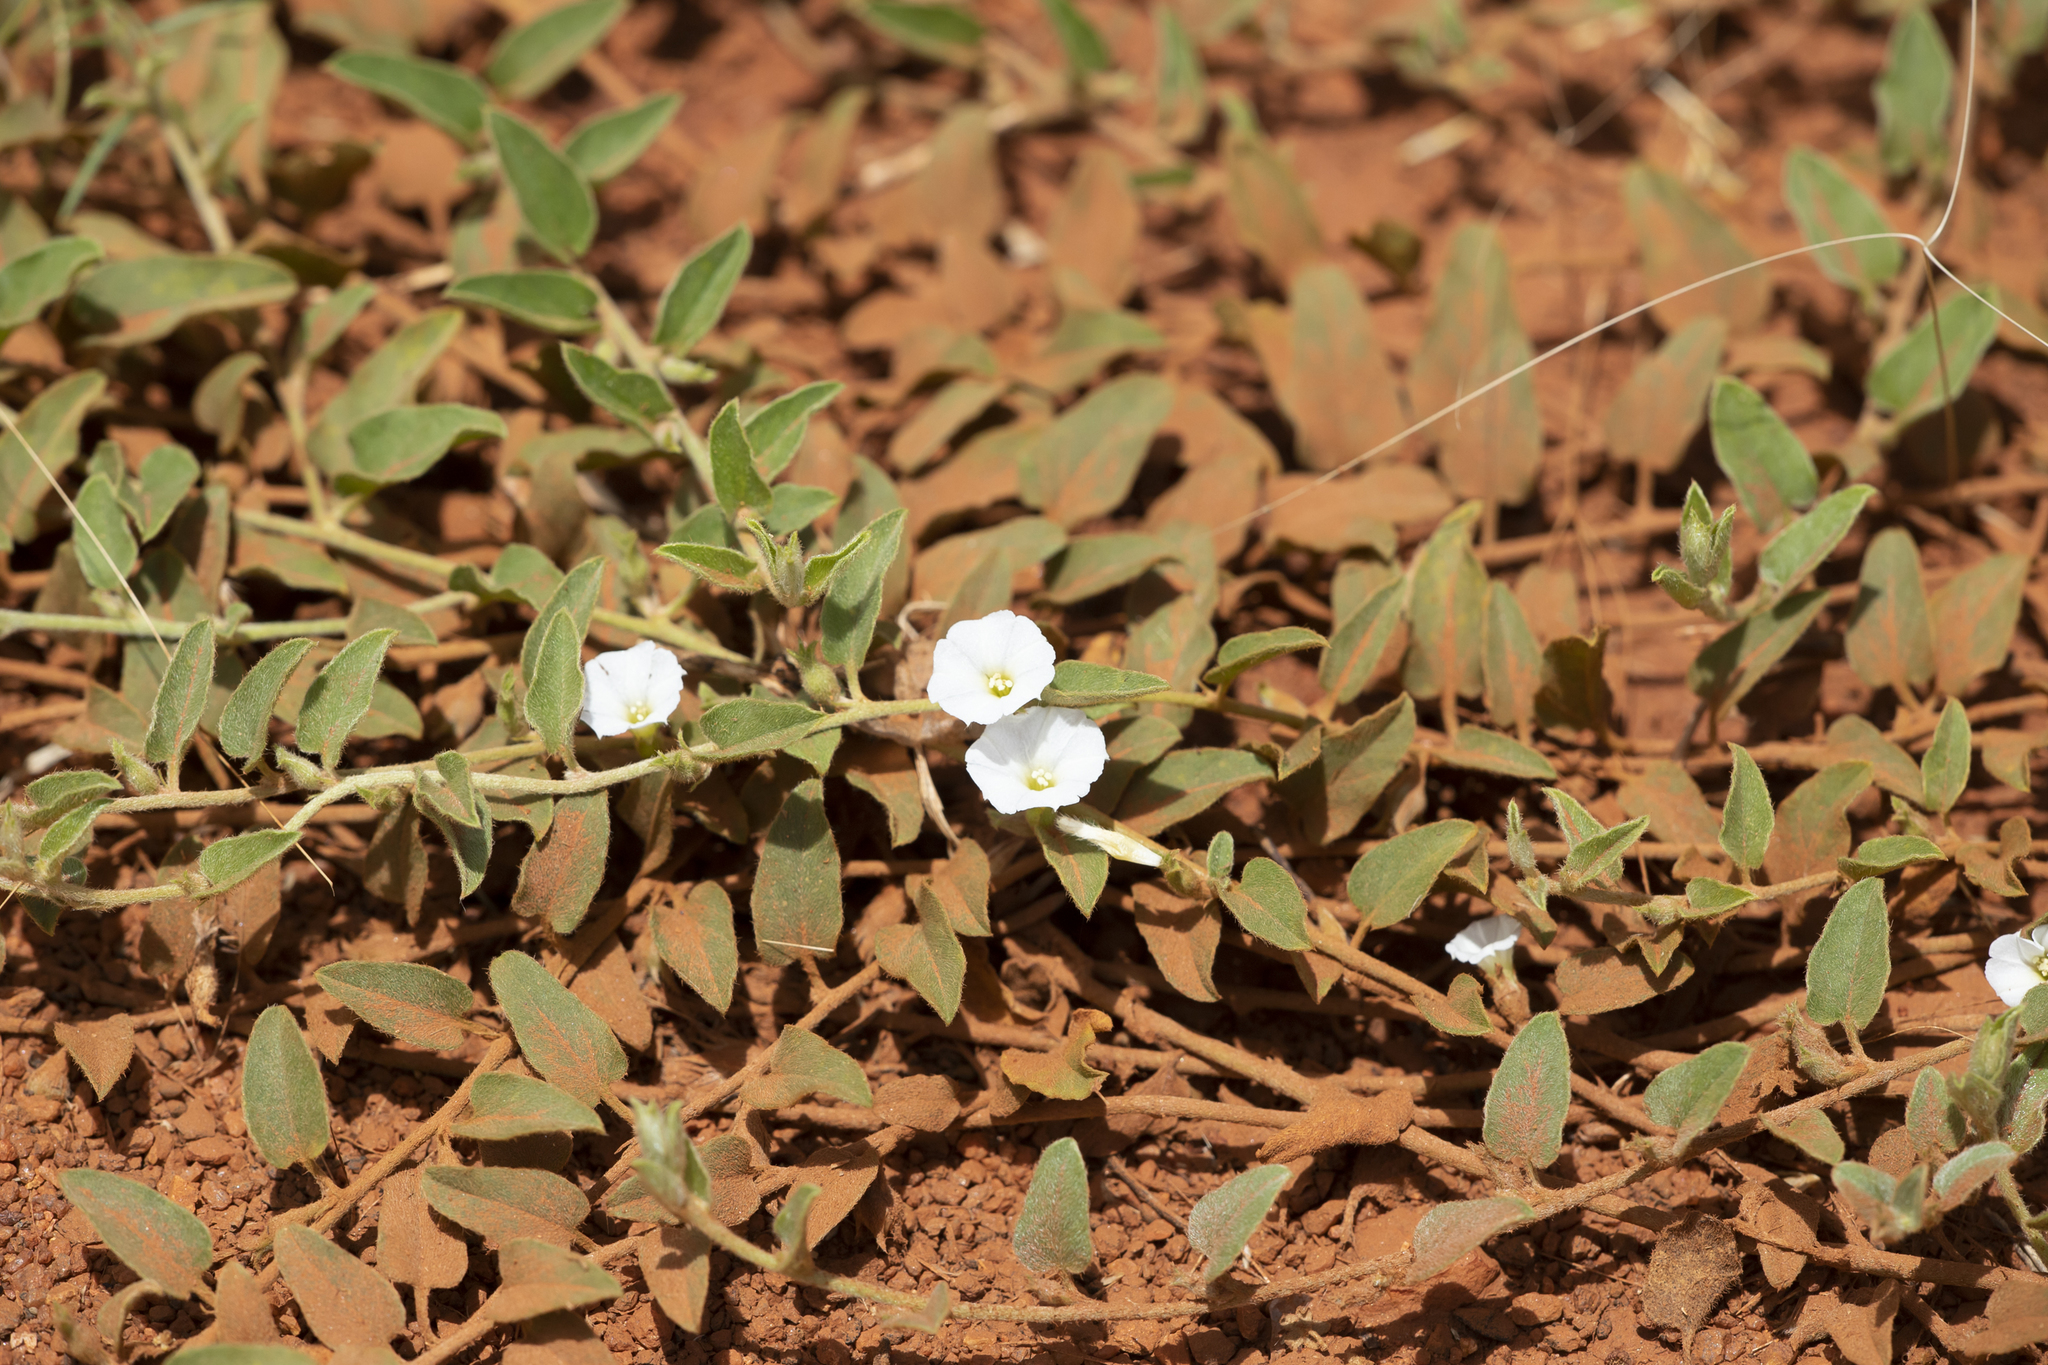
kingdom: Plantae
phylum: Tracheophyta
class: Magnoliopsida
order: Solanales
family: Convolvulaceae
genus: Bonamia
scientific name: Bonamia media
